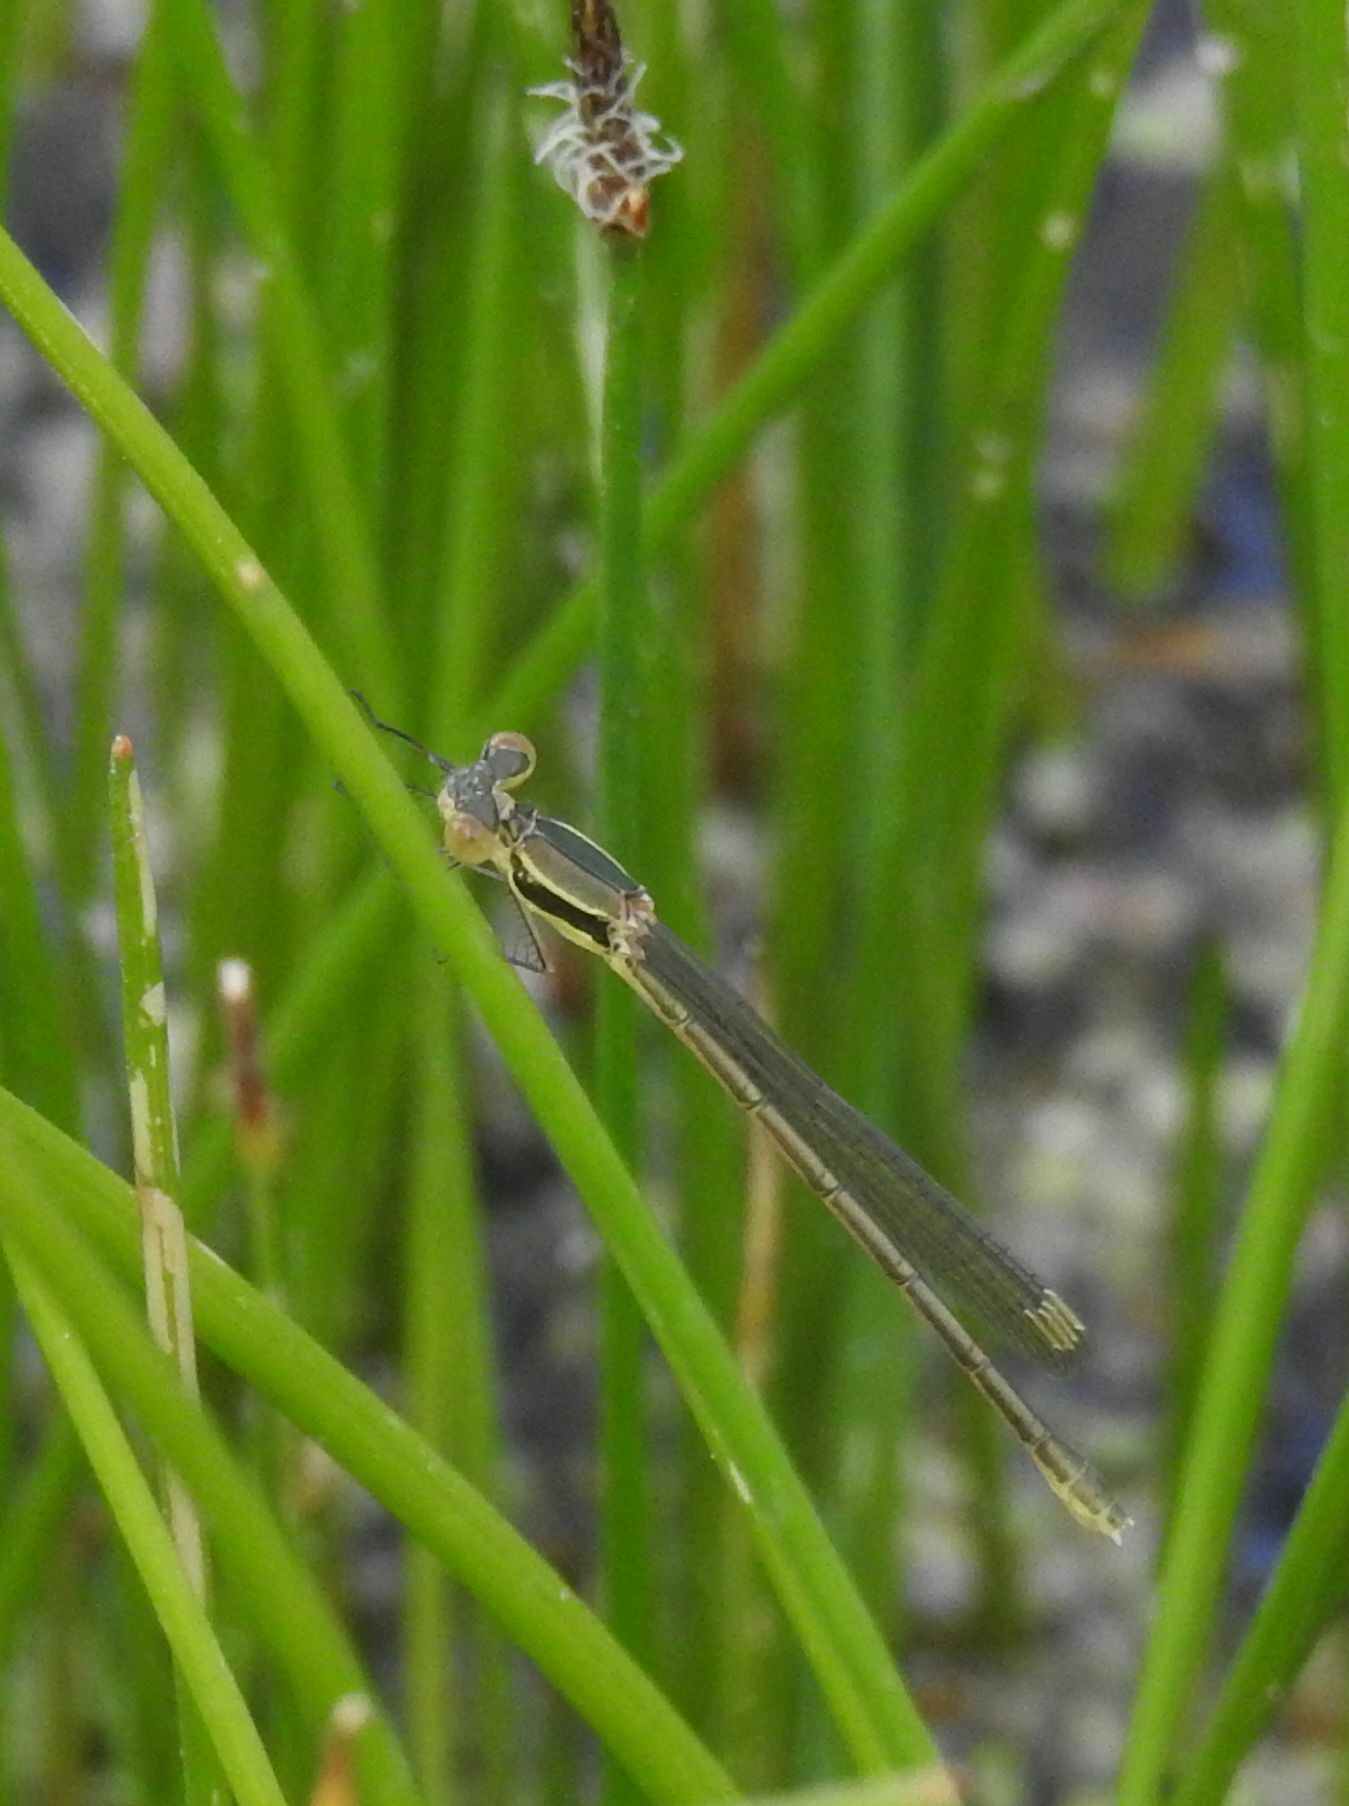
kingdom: Animalia
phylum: Arthropoda
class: Insecta
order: Odonata
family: Lestidae
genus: Lestes
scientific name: Lestes virens
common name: Small emerald spreadwing
